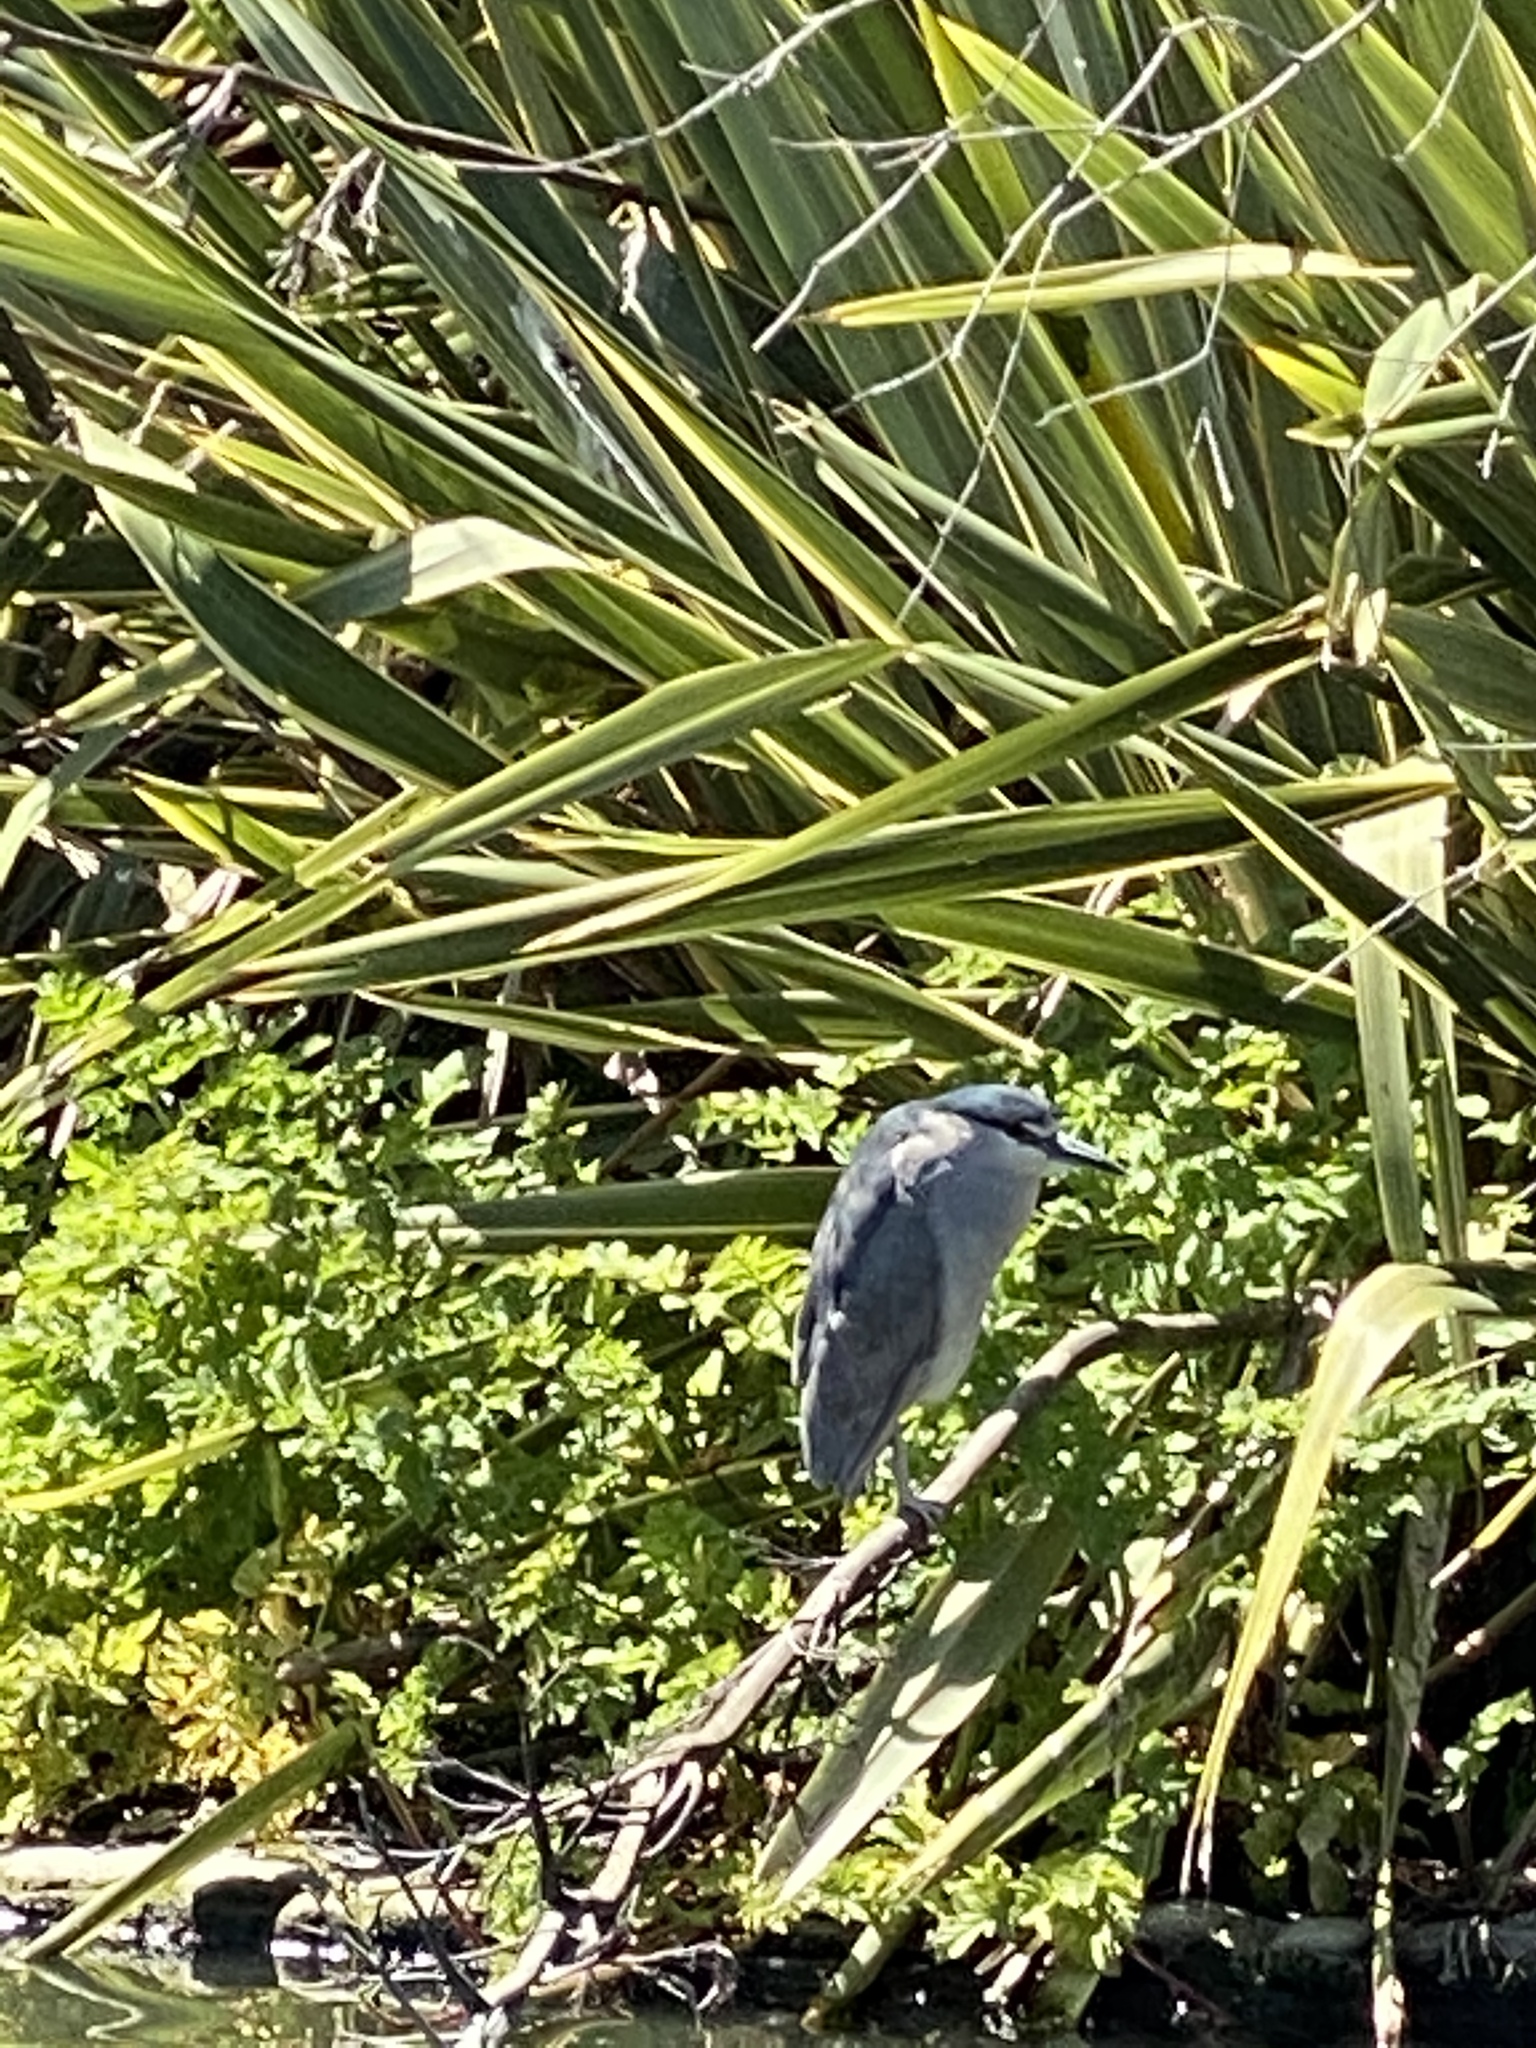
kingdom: Animalia
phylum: Chordata
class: Aves
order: Pelecaniformes
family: Ardeidae
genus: Nycticorax
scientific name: Nycticorax nycticorax
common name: Black-crowned night heron
